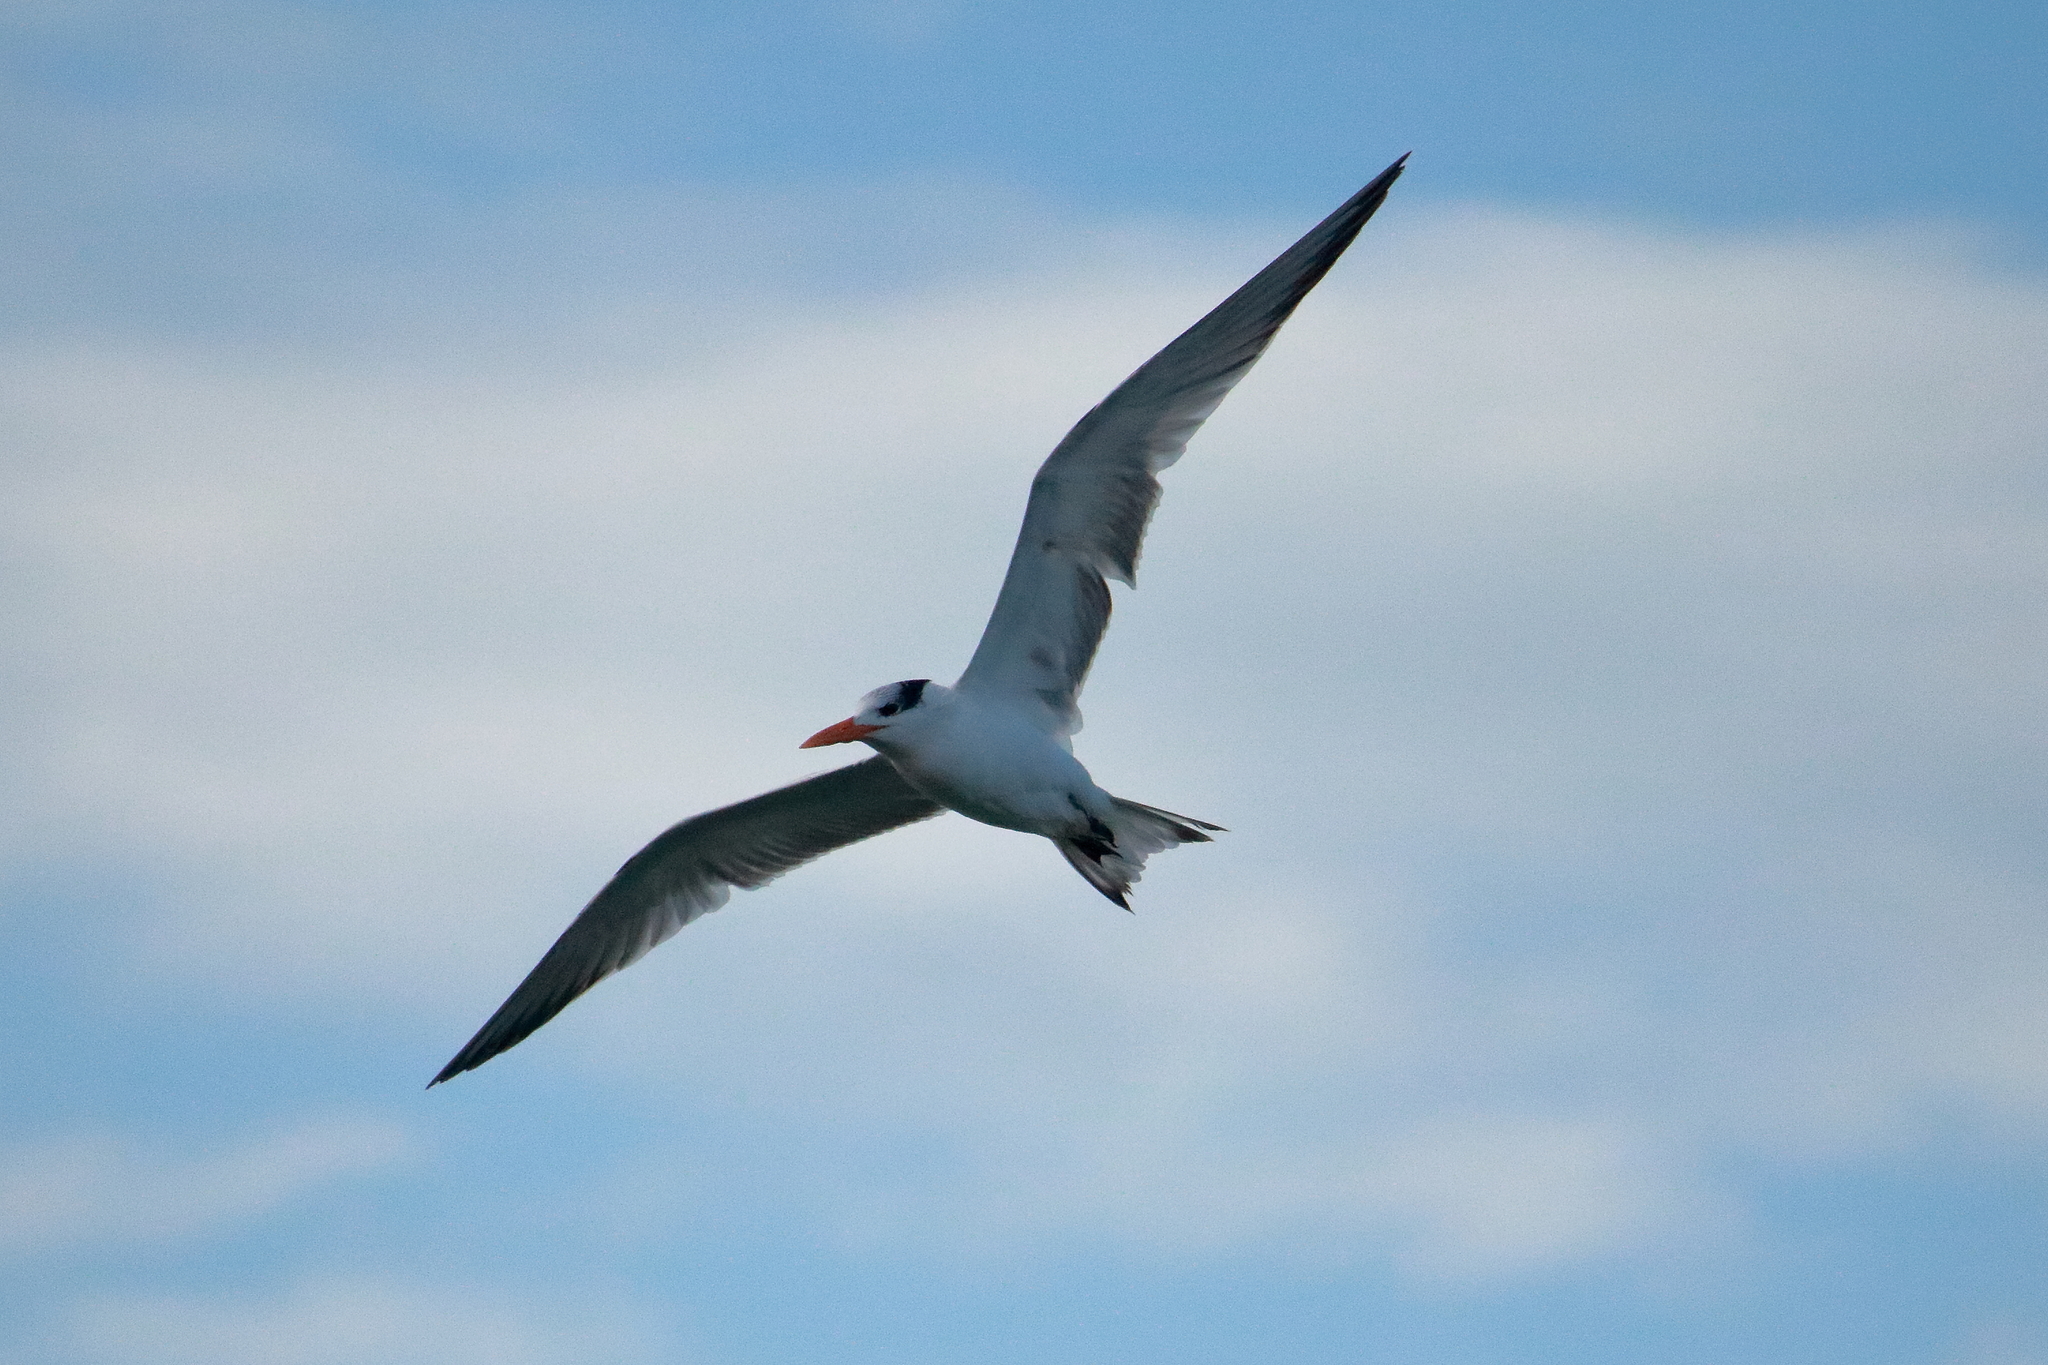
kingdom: Animalia
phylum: Chordata
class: Aves
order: Charadriiformes
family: Laridae
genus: Thalasseus
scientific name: Thalasseus maximus
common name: Royal tern
